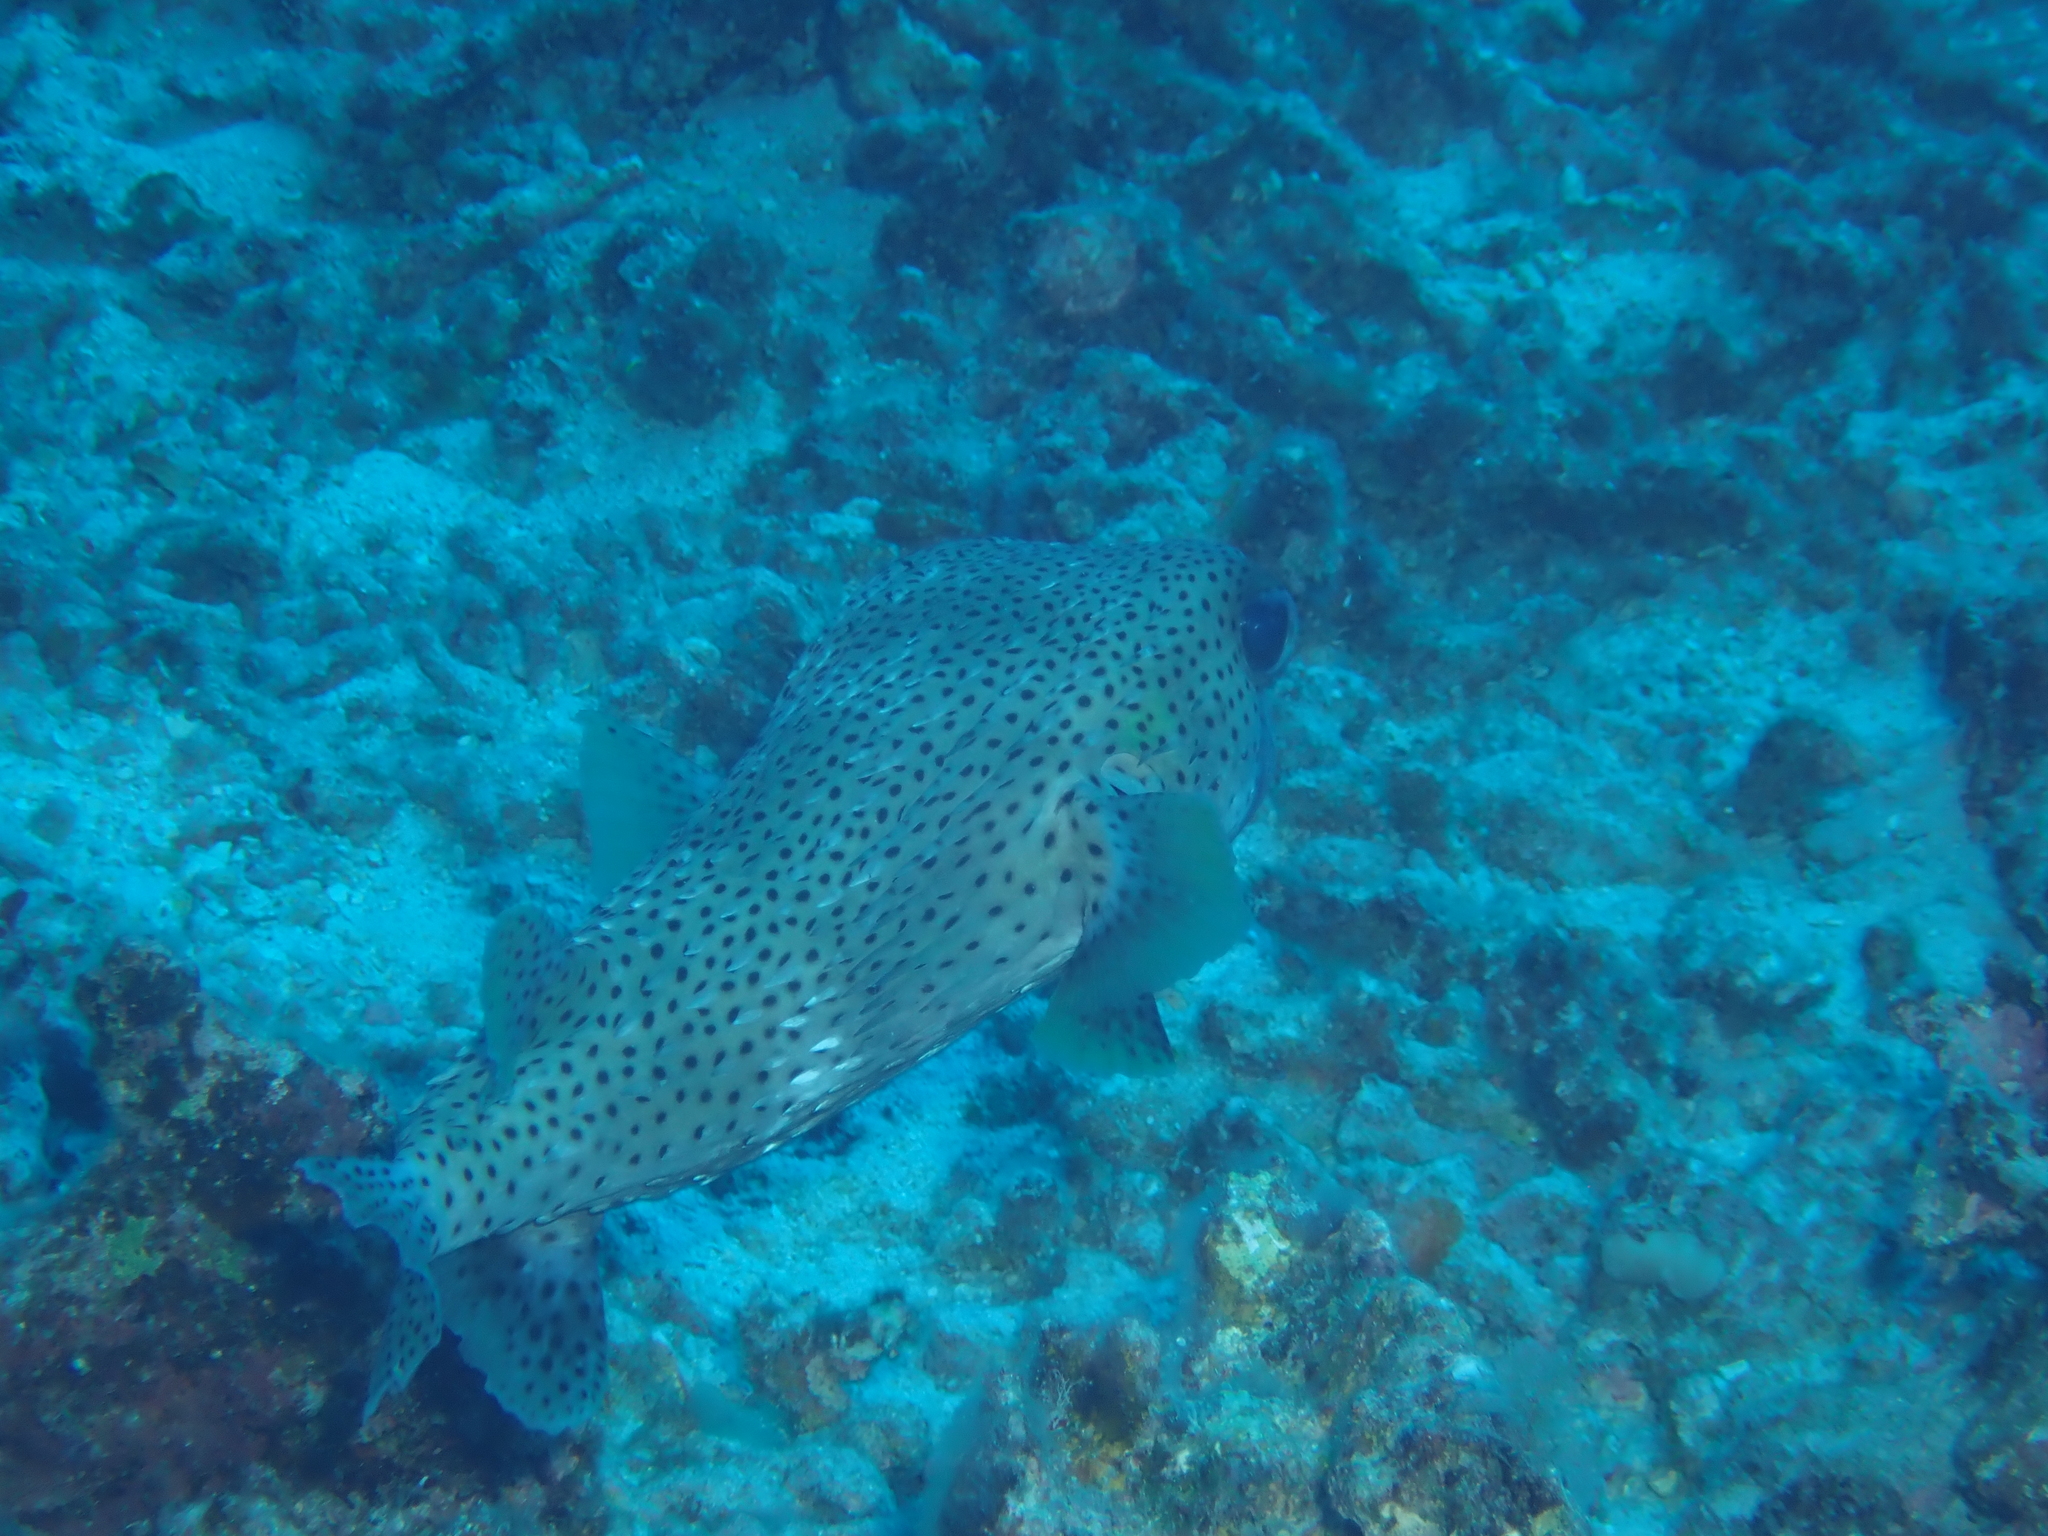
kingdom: Animalia
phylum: Chordata
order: Tetraodontiformes
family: Diodontidae
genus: Diodon
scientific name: Diodon hystrix
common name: Giant porcupinefish
